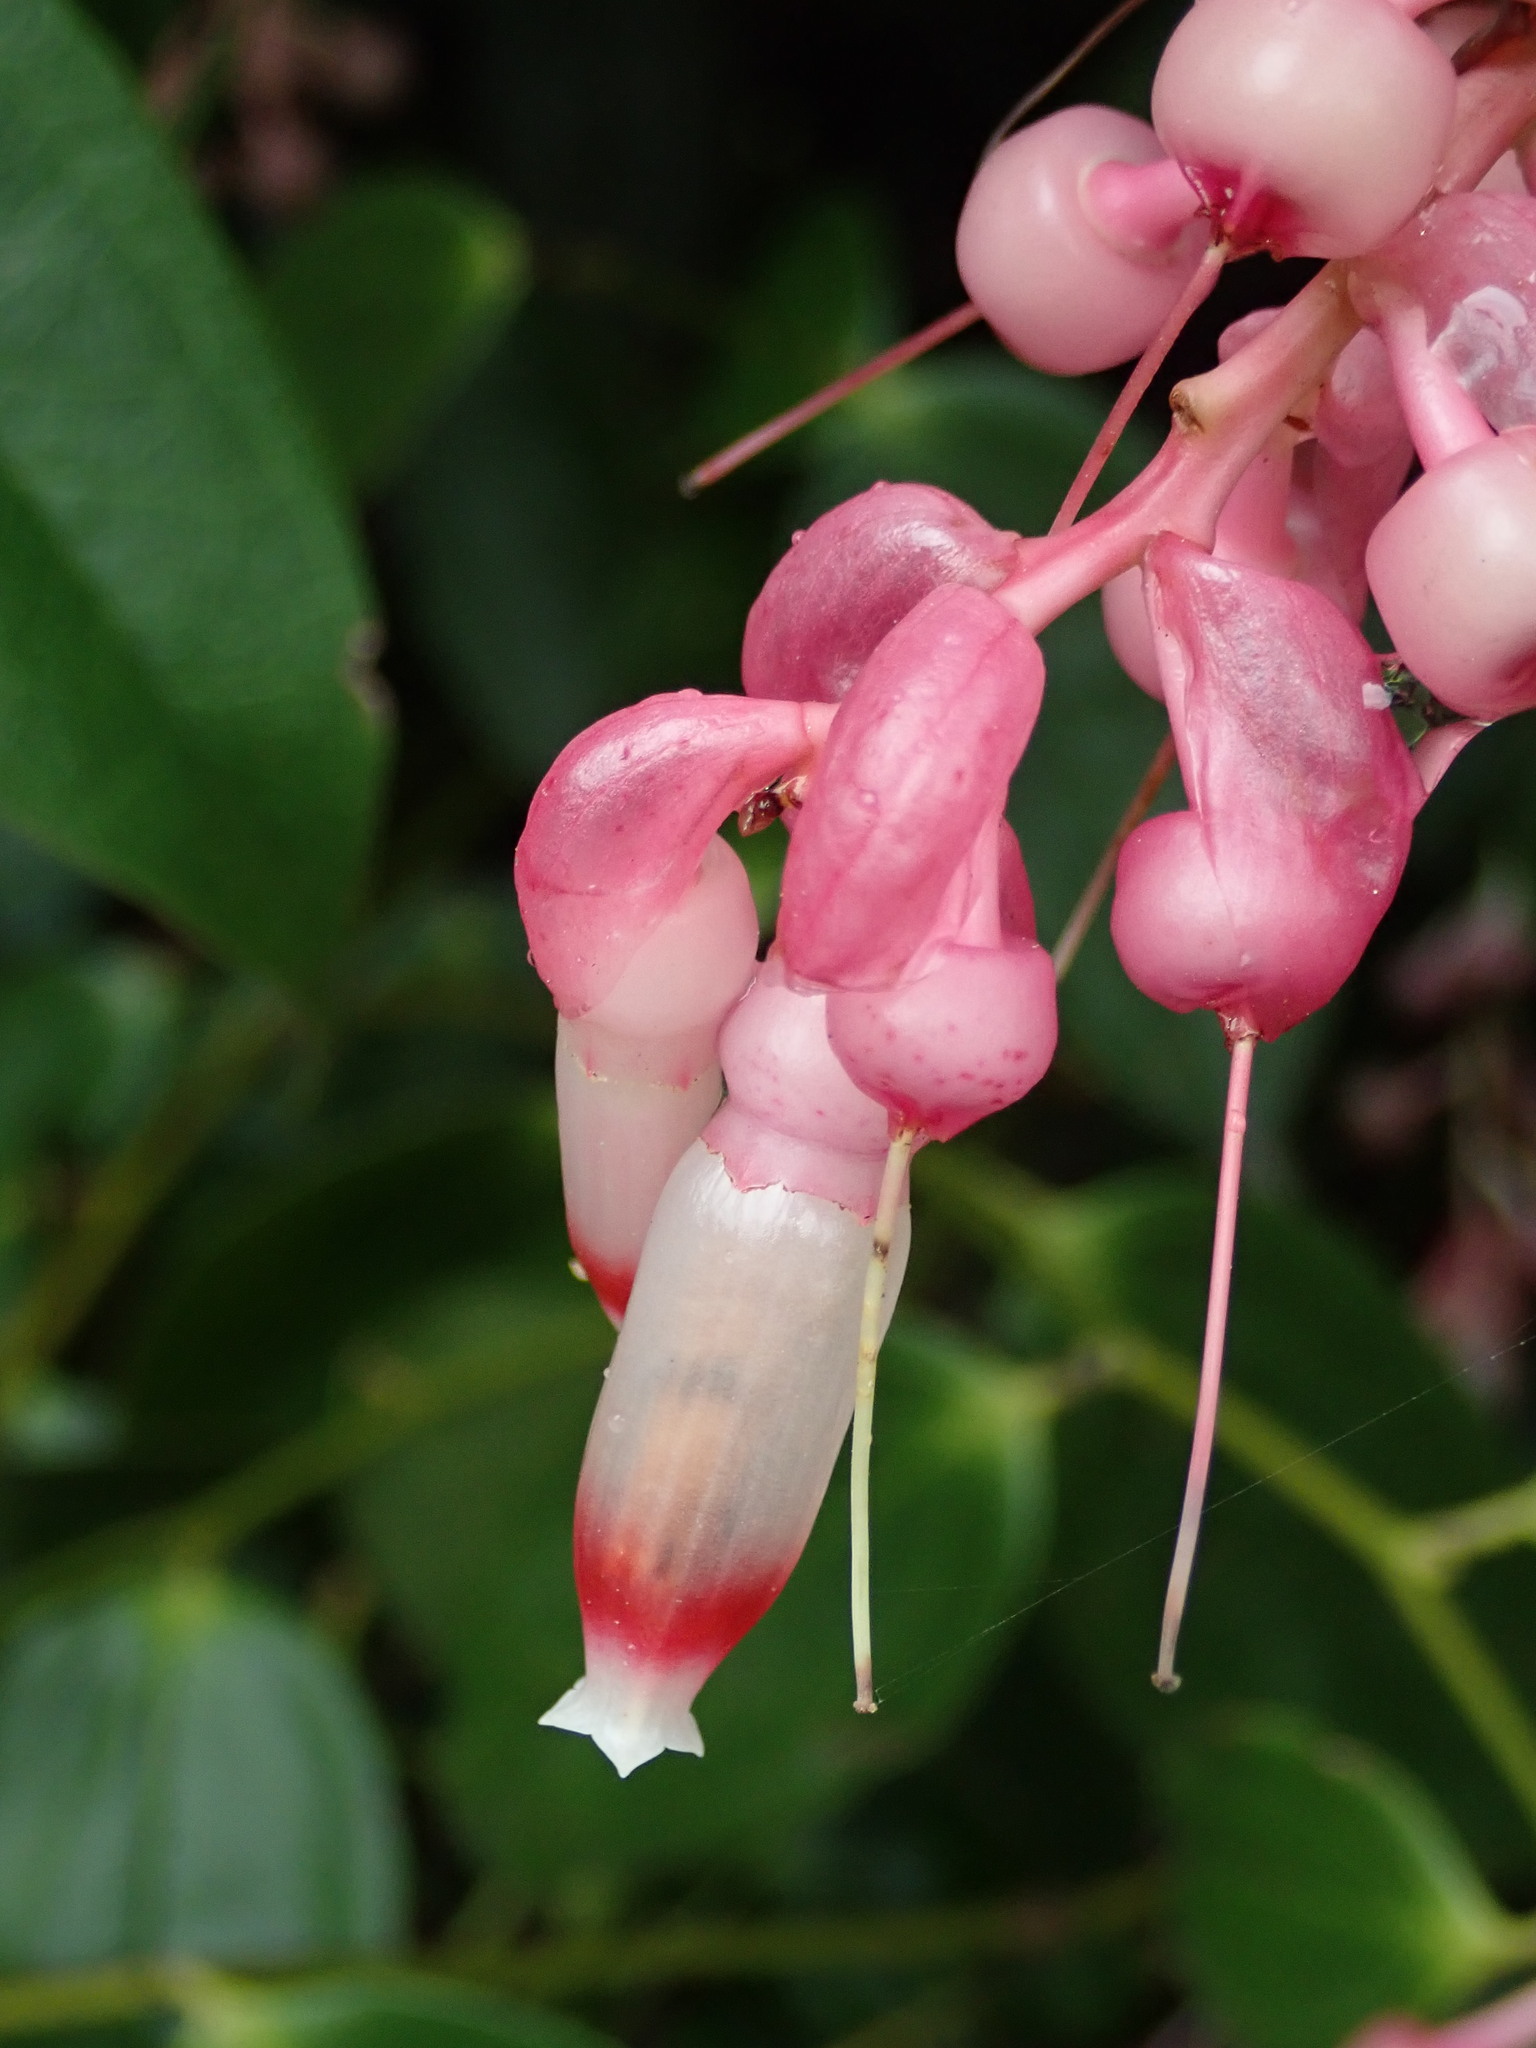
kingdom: Plantae
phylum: Tracheophyta
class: Magnoliopsida
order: Ericales
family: Ericaceae
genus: Cavendishia
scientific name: Cavendishia tarapotana
